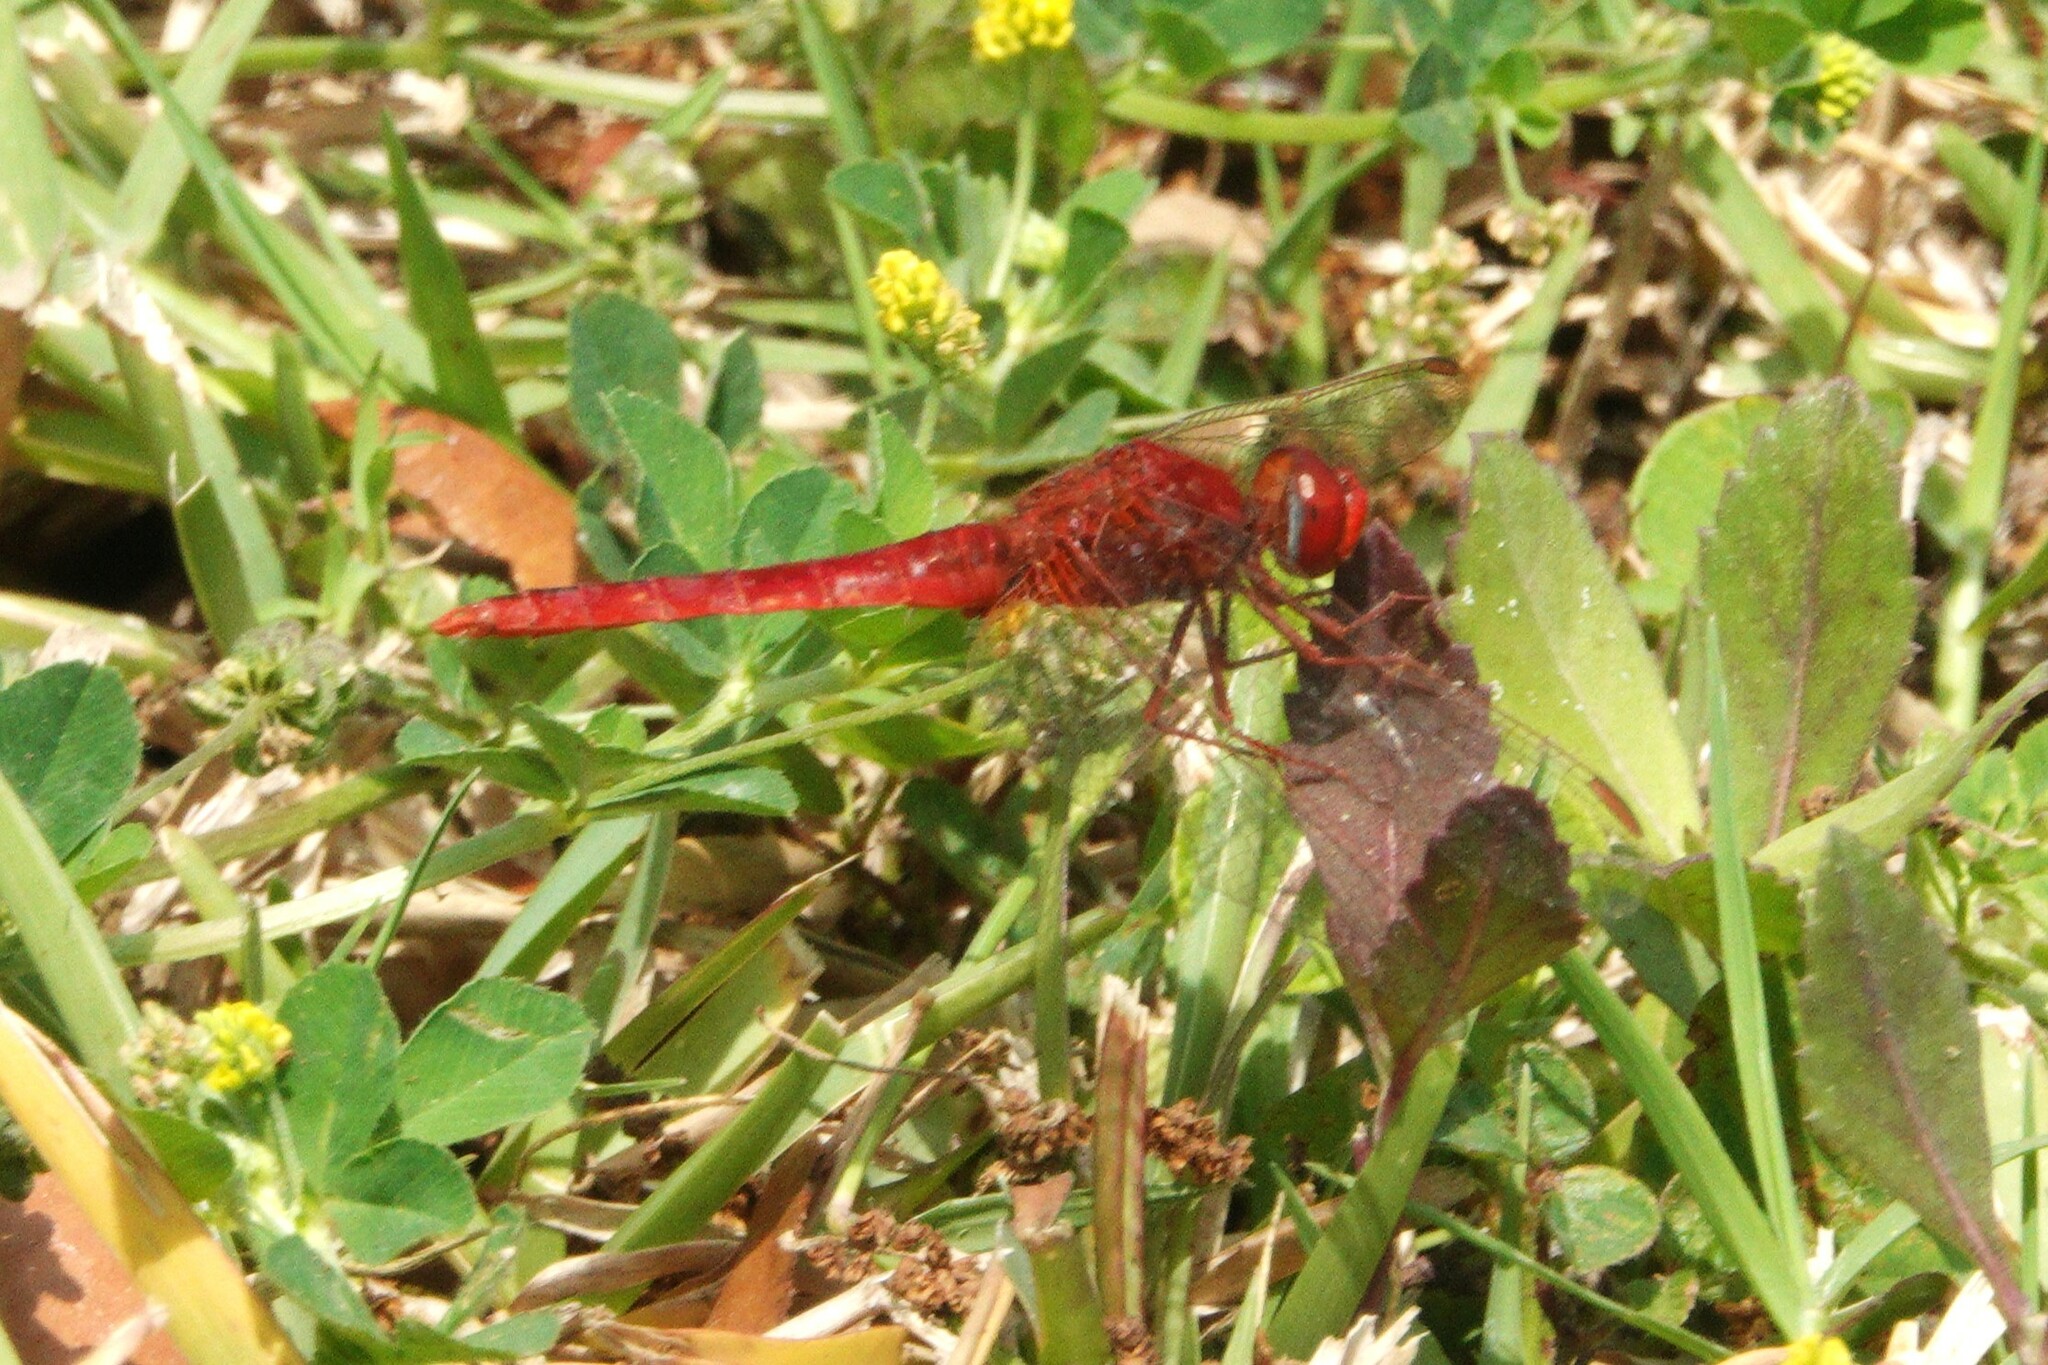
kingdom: Animalia
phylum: Arthropoda
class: Insecta
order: Odonata
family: Libellulidae
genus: Crocothemis
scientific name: Crocothemis servilia
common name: Scarlet skimmer
